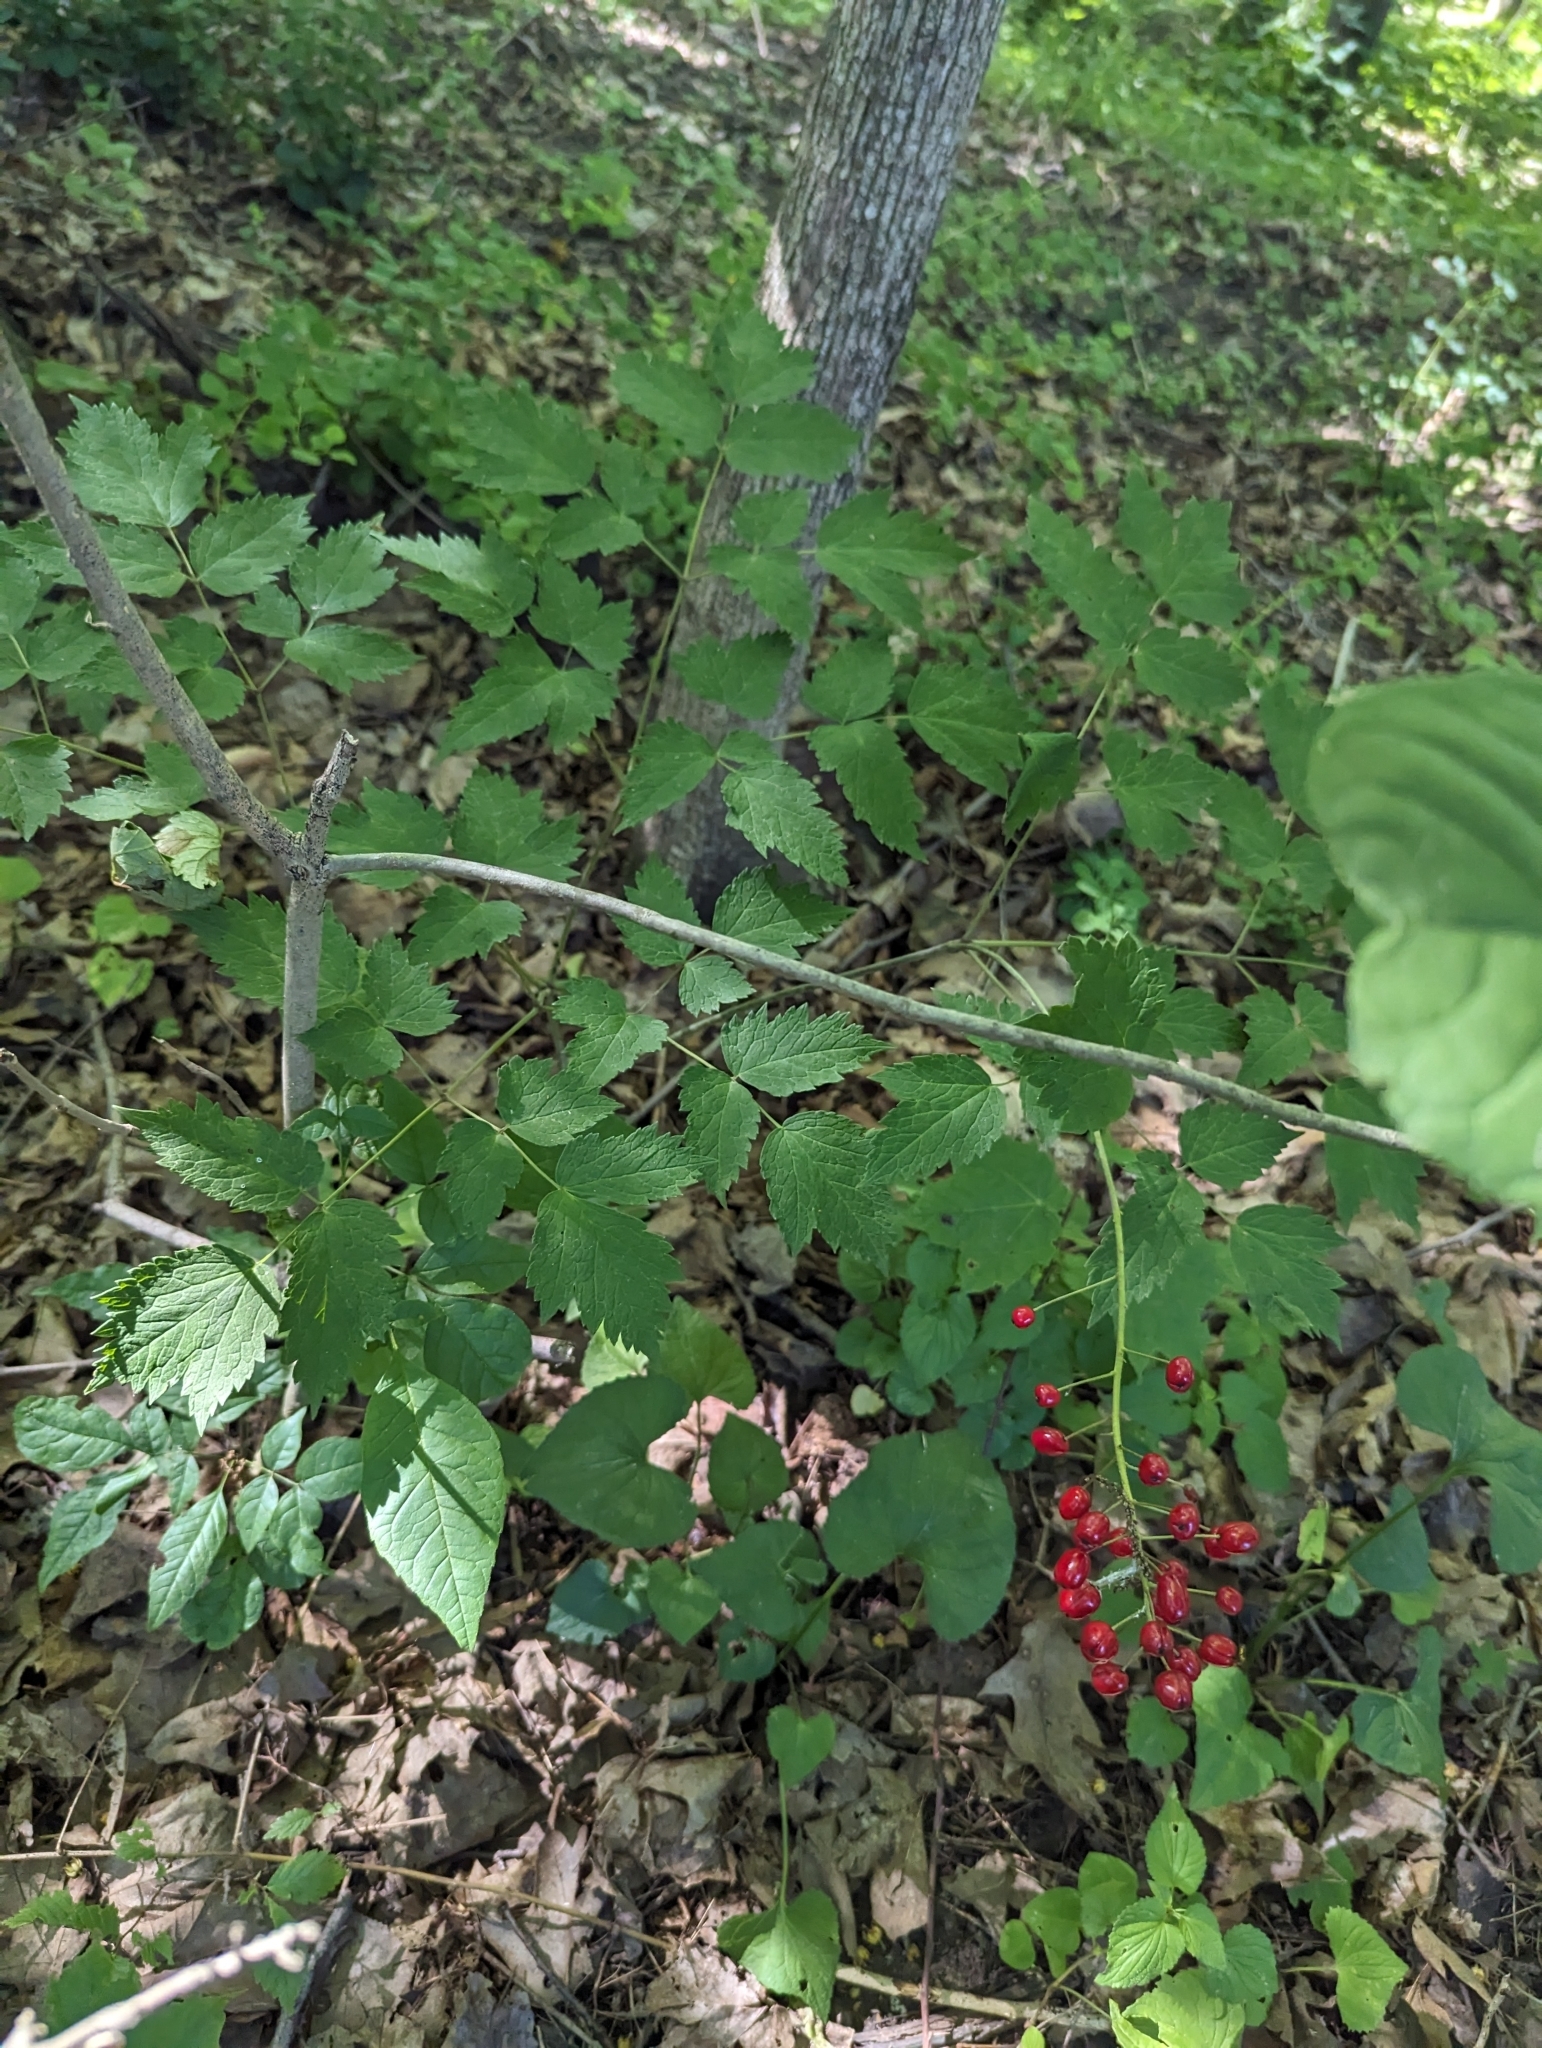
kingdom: Plantae
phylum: Tracheophyta
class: Magnoliopsida
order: Ranunculales
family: Ranunculaceae
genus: Actaea
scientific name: Actaea rubra
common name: Red baneberry
